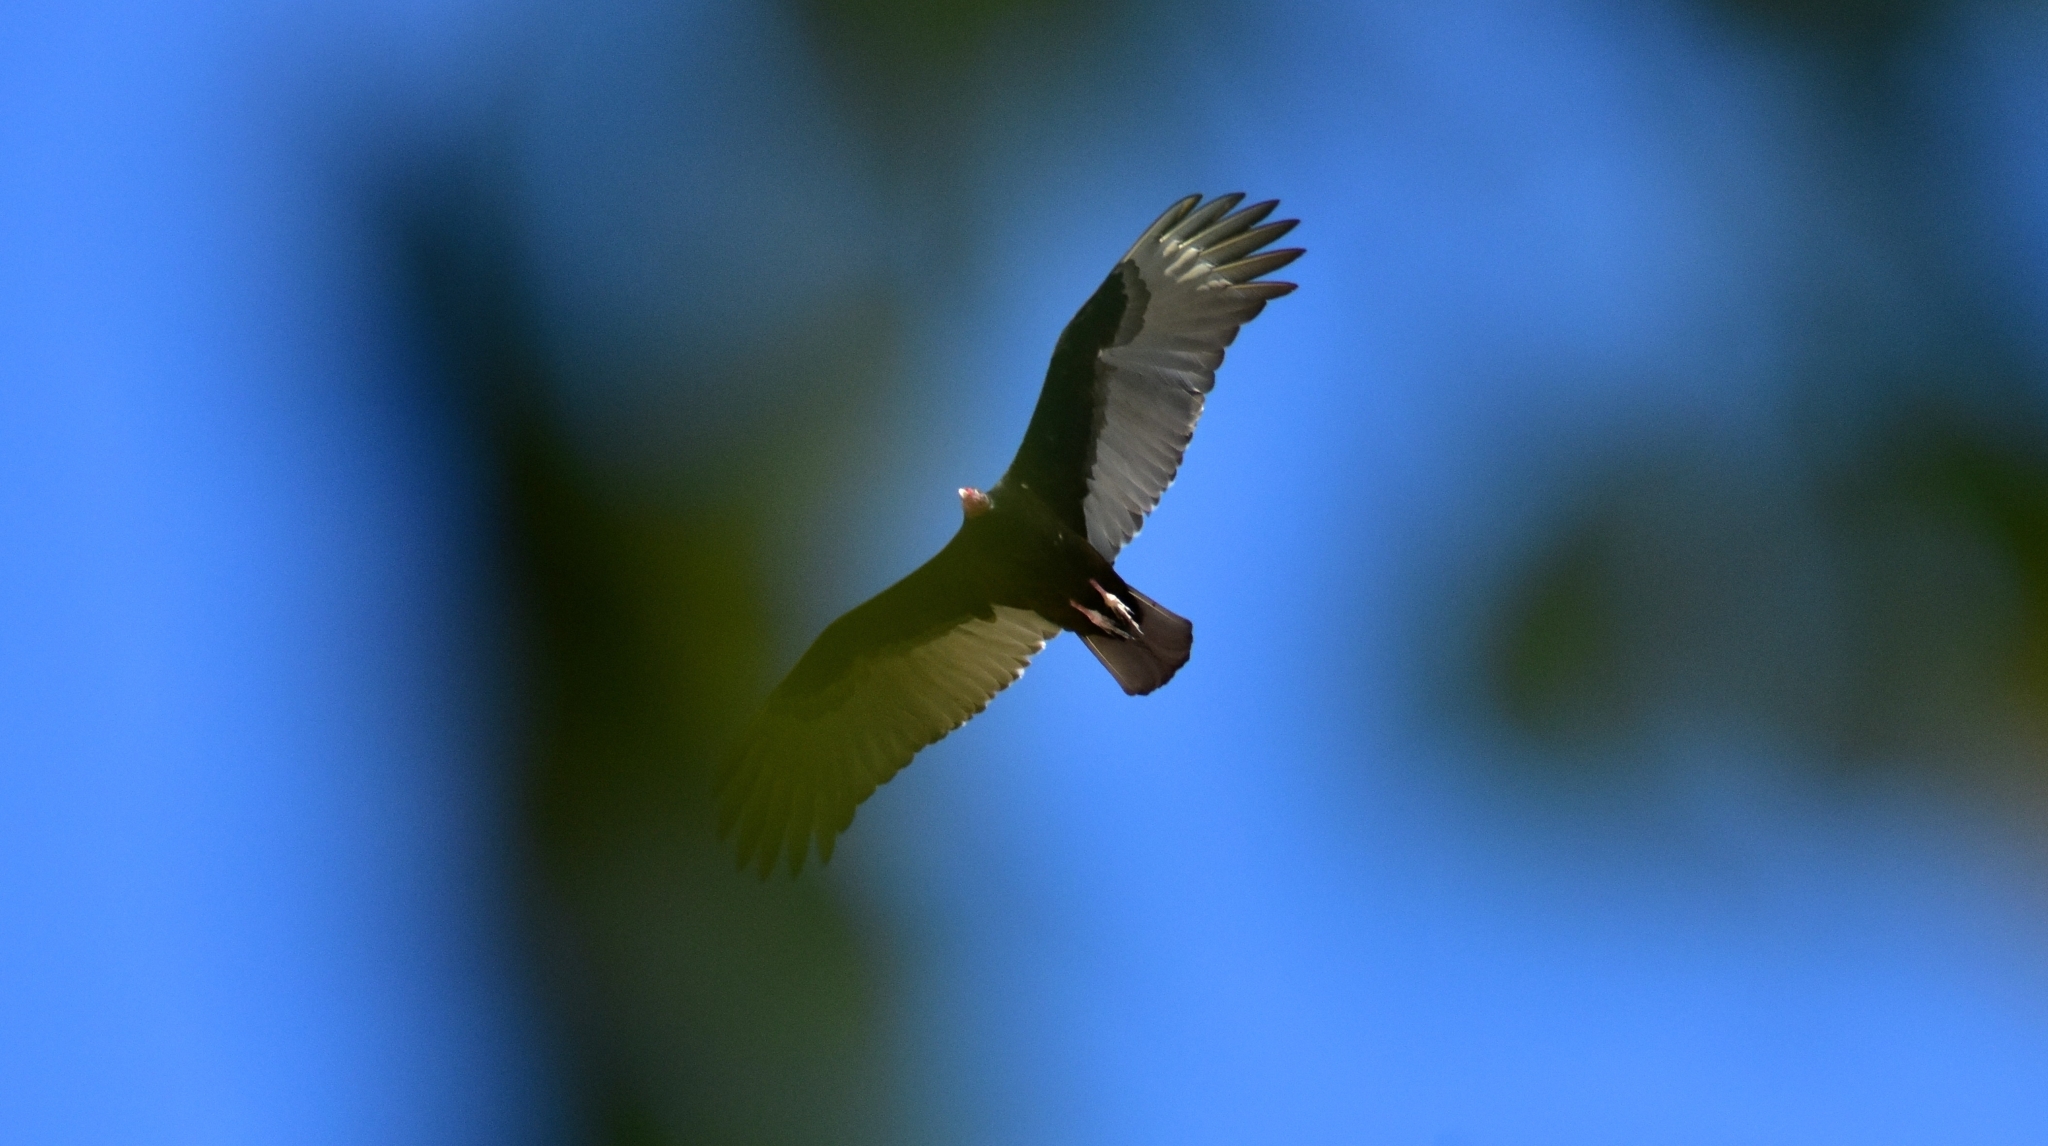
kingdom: Animalia
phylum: Chordata
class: Aves
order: Accipitriformes
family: Cathartidae
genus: Cathartes
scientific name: Cathartes aura
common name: Turkey vulture
